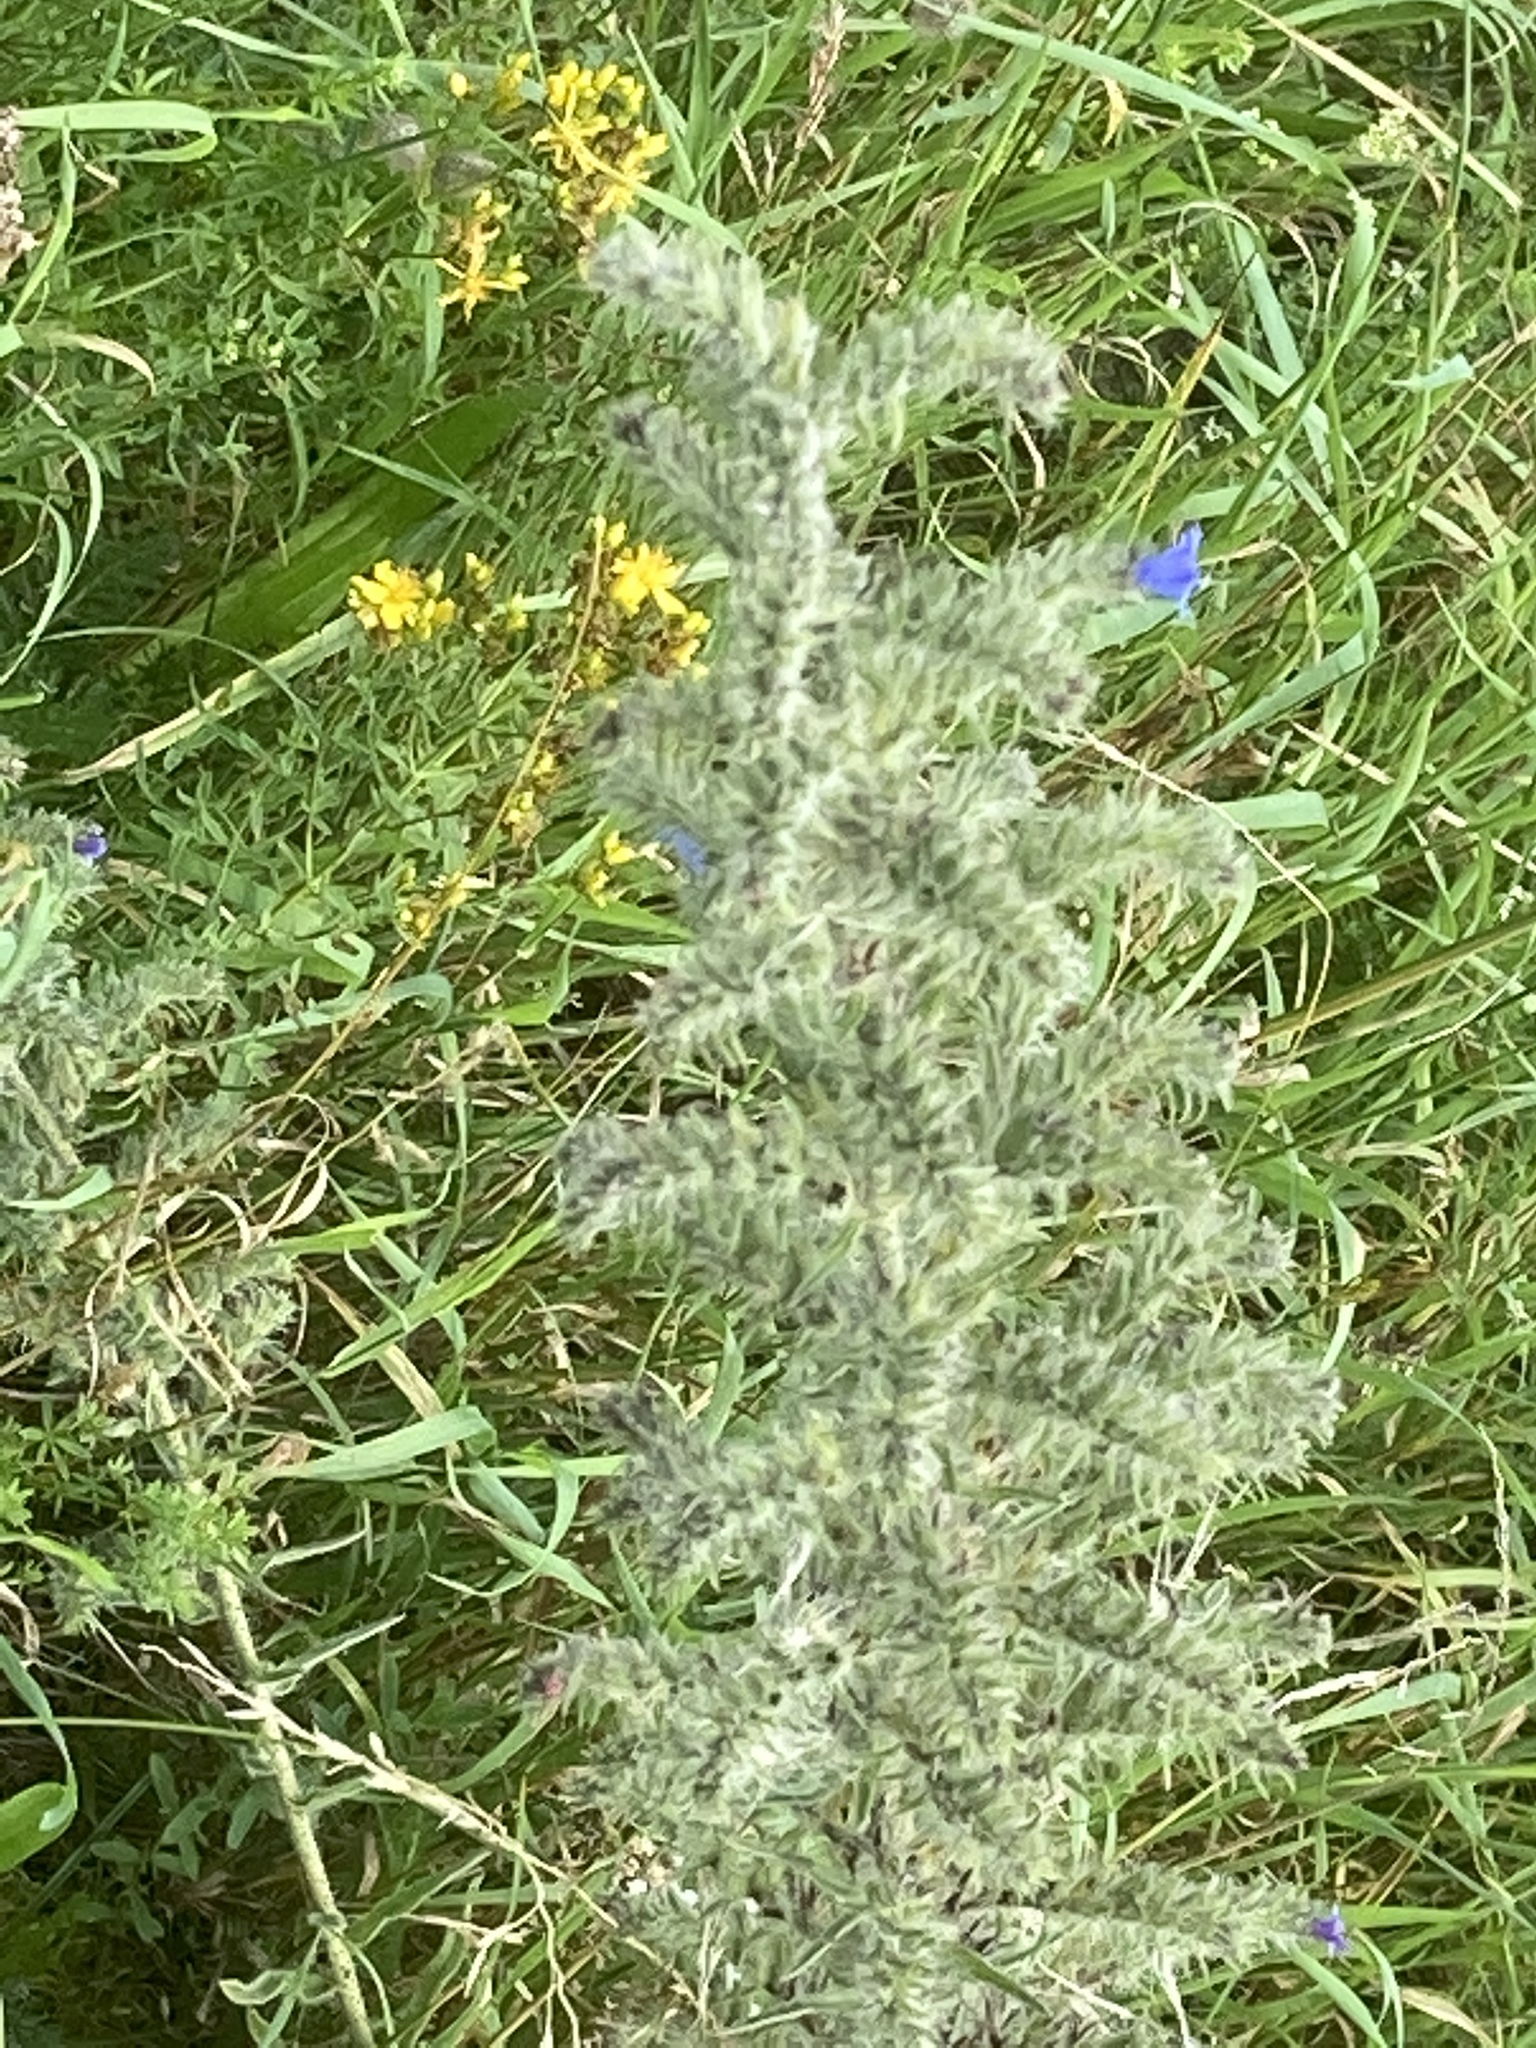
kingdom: Plantae
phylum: Tracheophyta
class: Magnoliopsida
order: Boraginales
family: Boraginaceae
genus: Echium
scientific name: Echium vulgare
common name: Common viper's bugloss
